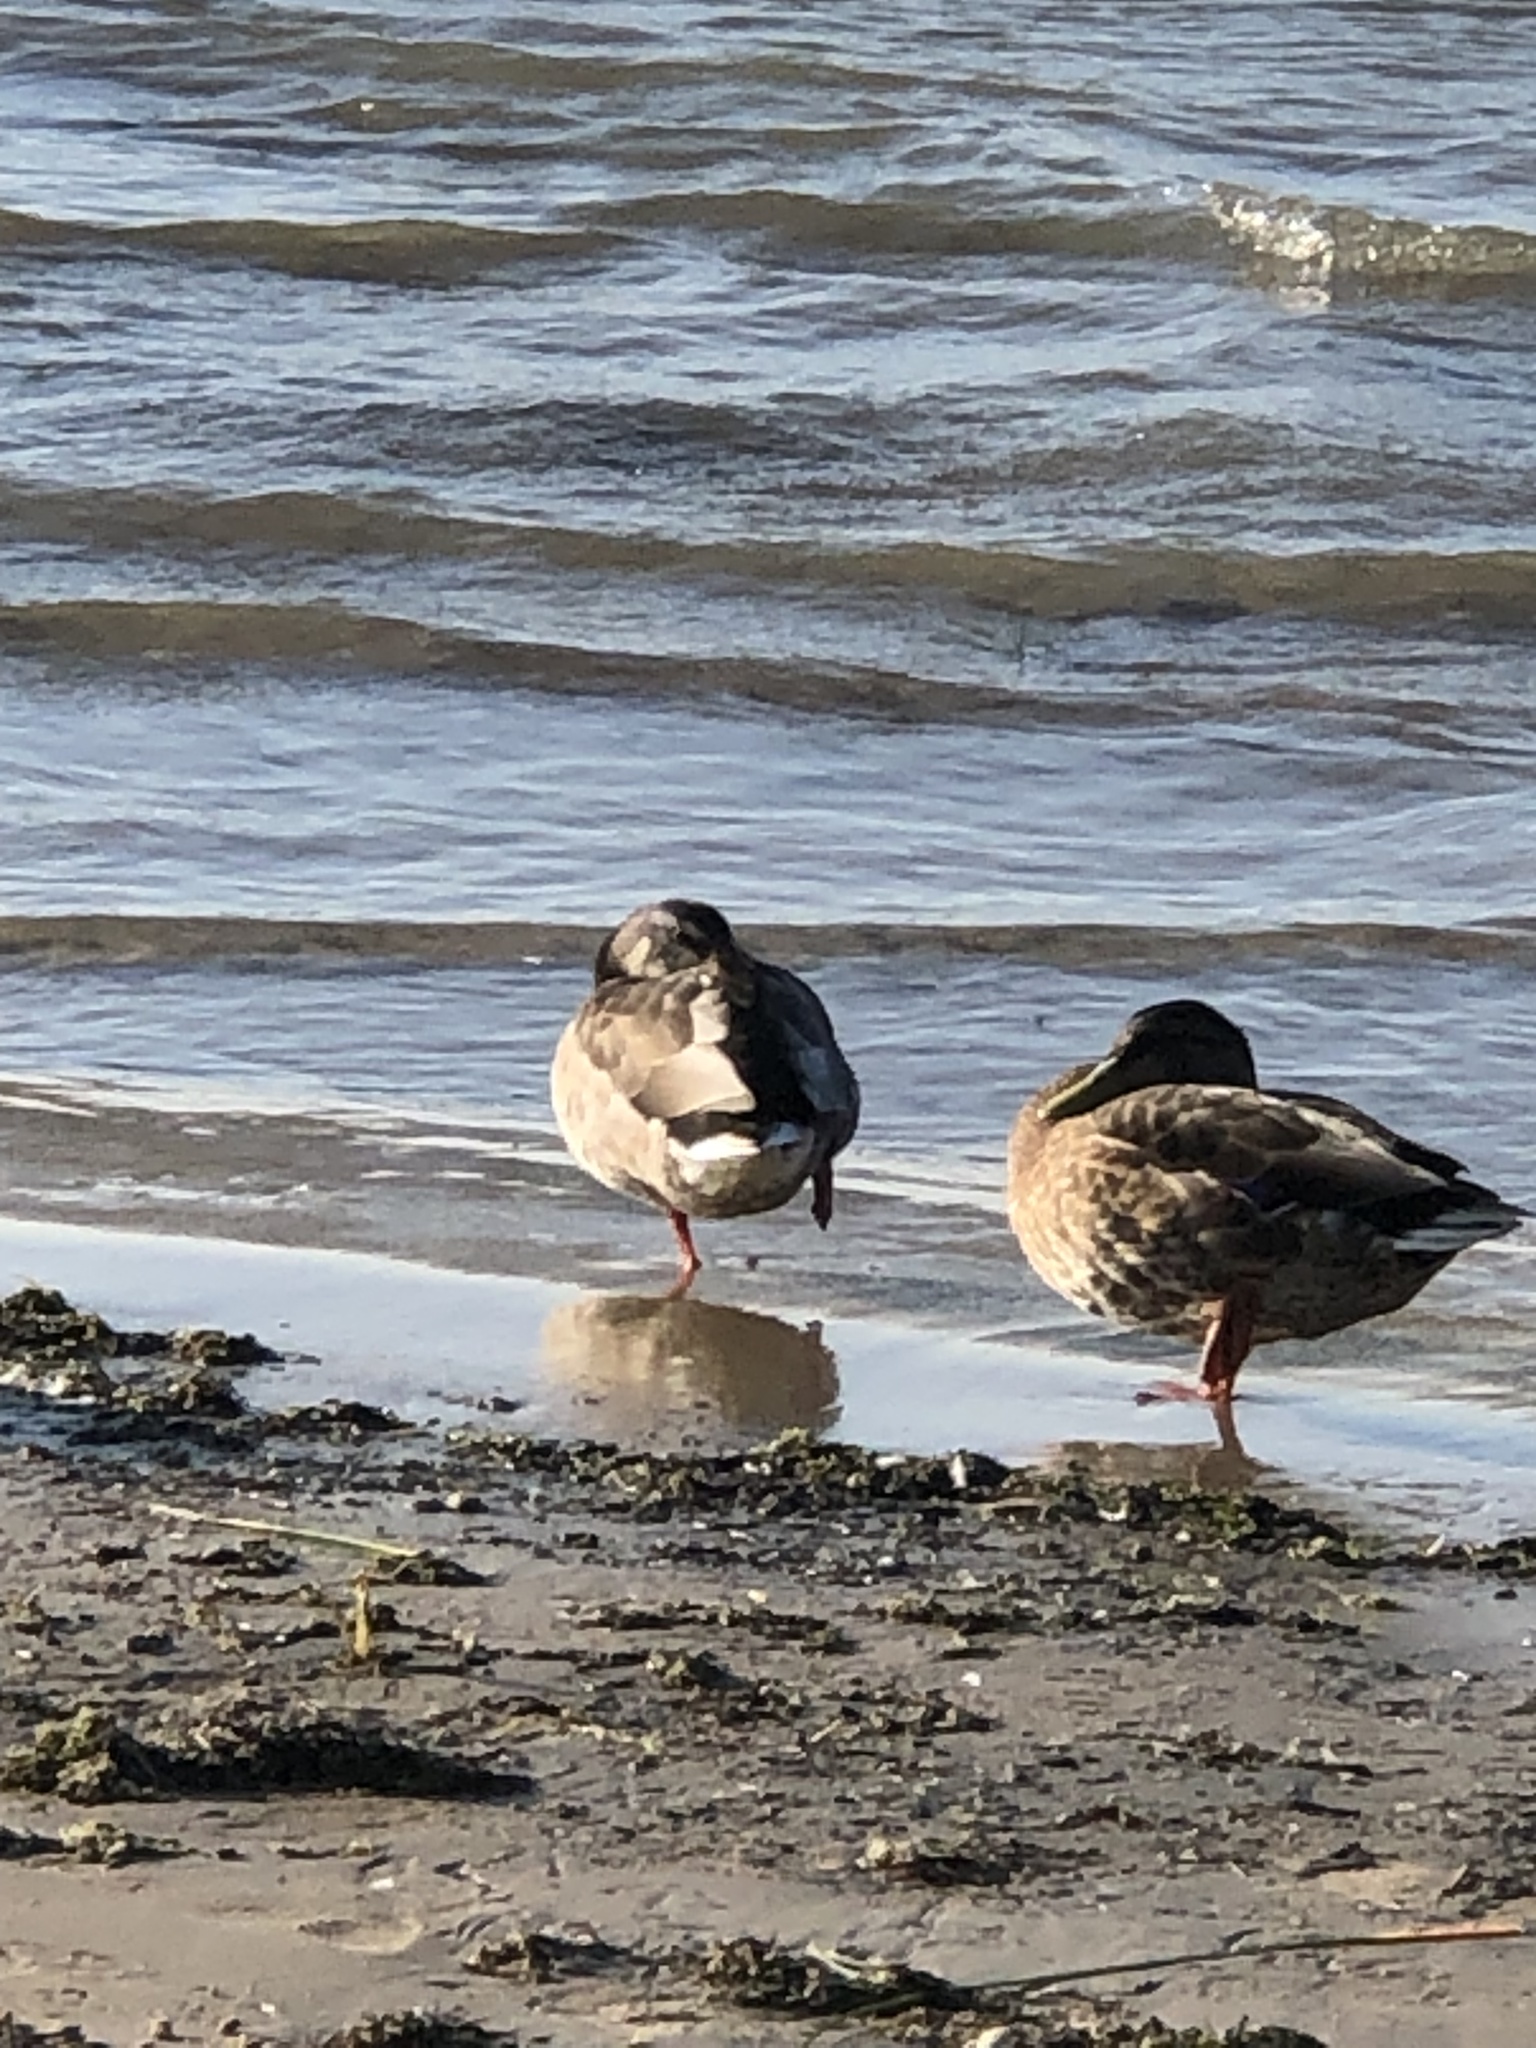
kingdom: Animalia
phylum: Chordata
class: Aves
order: Anseriformes
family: Anatidae
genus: Anas
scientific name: Anas platyrhynchos
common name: Mallard
